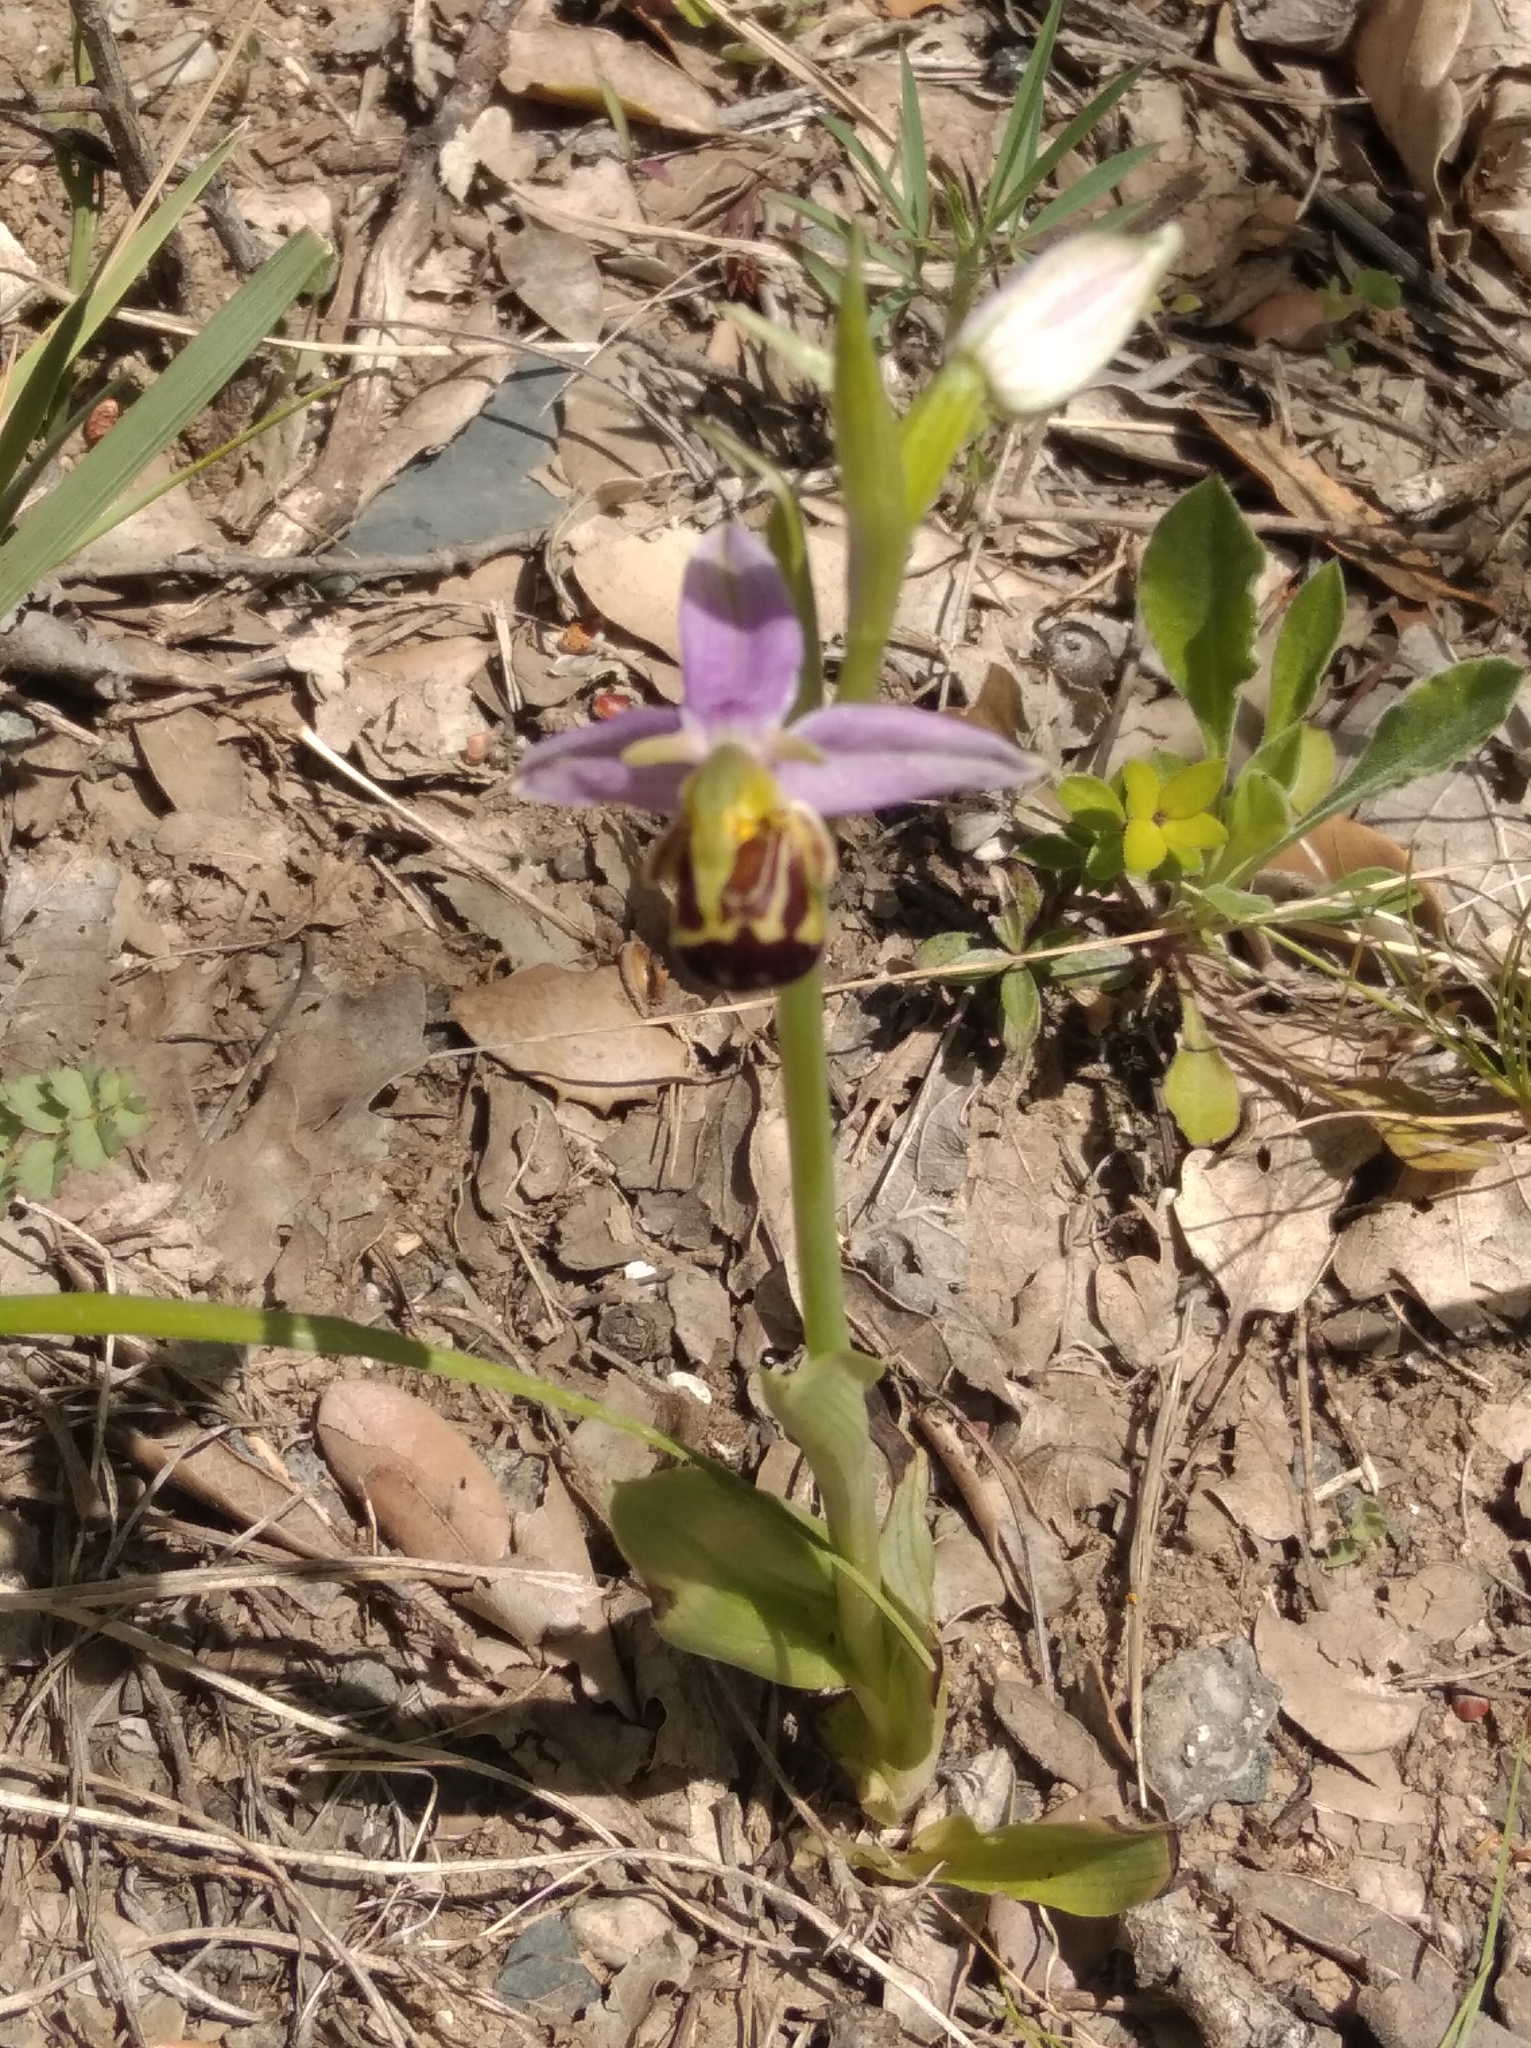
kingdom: Plantae
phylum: Tracheophyta
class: Liliopsida
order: Asparagales
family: Orchidaceae
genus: Ophrys
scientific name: Ophrys apifera
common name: Bee orchid
